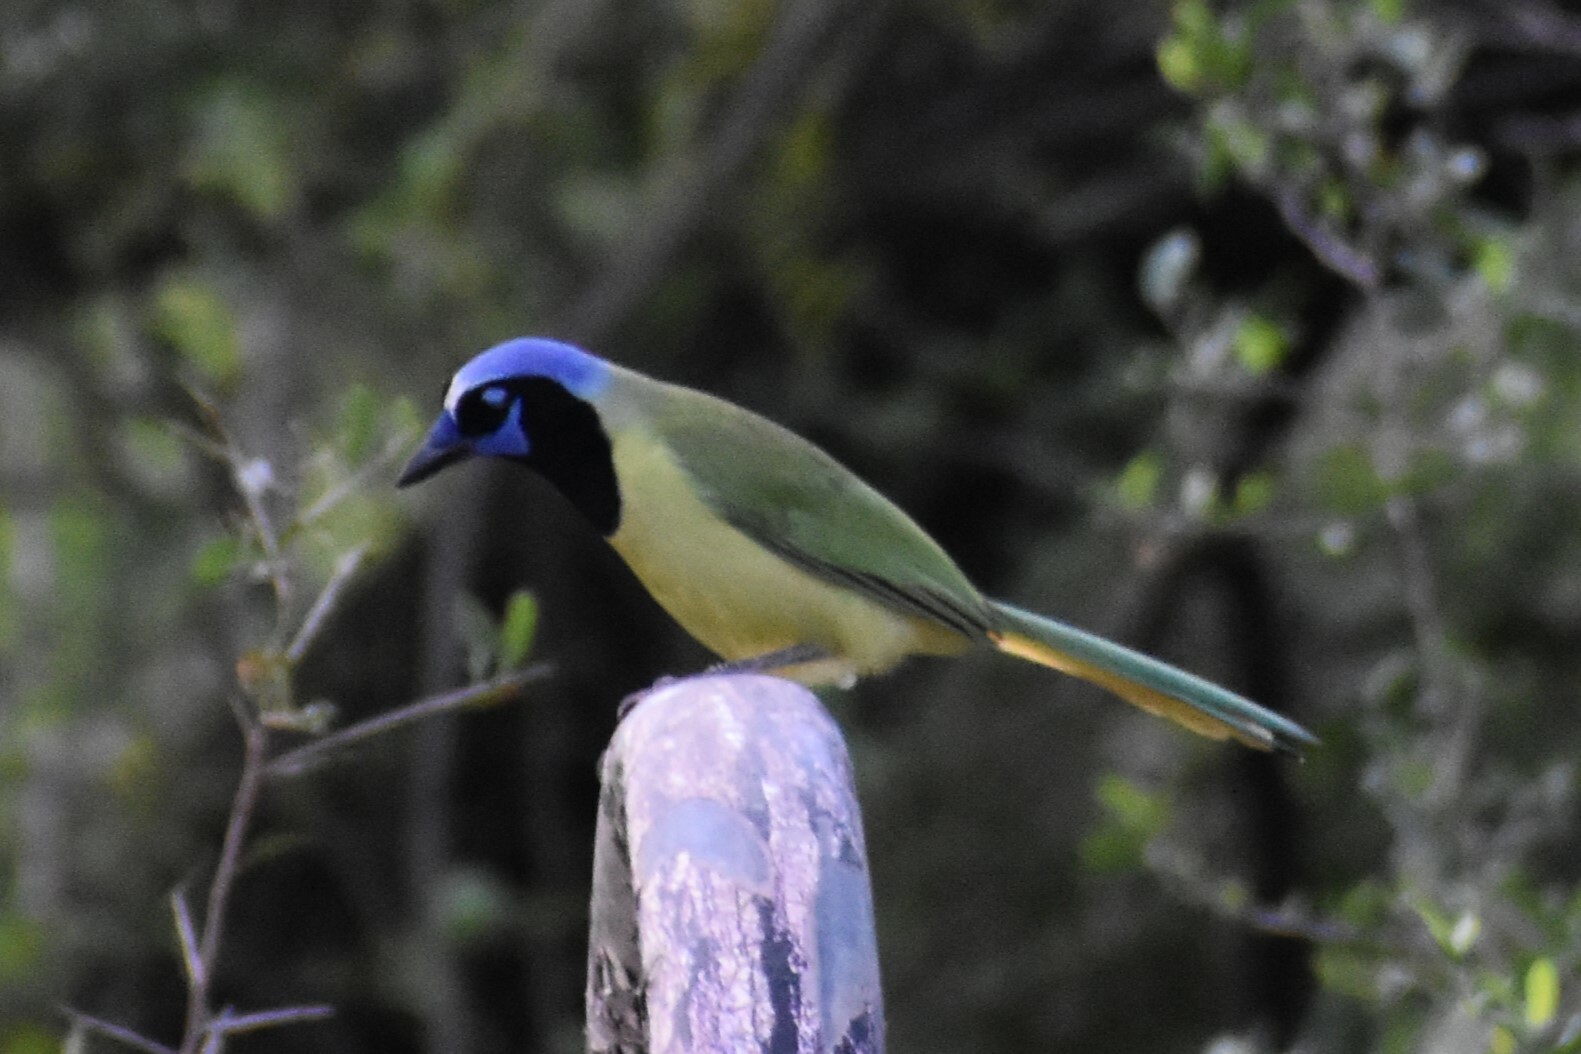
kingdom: Animalia
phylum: Chordata
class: Aves
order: Passeriformes
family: Corvidae
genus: Cyanocorax
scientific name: Cyanocorax yncas
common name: Green jay
